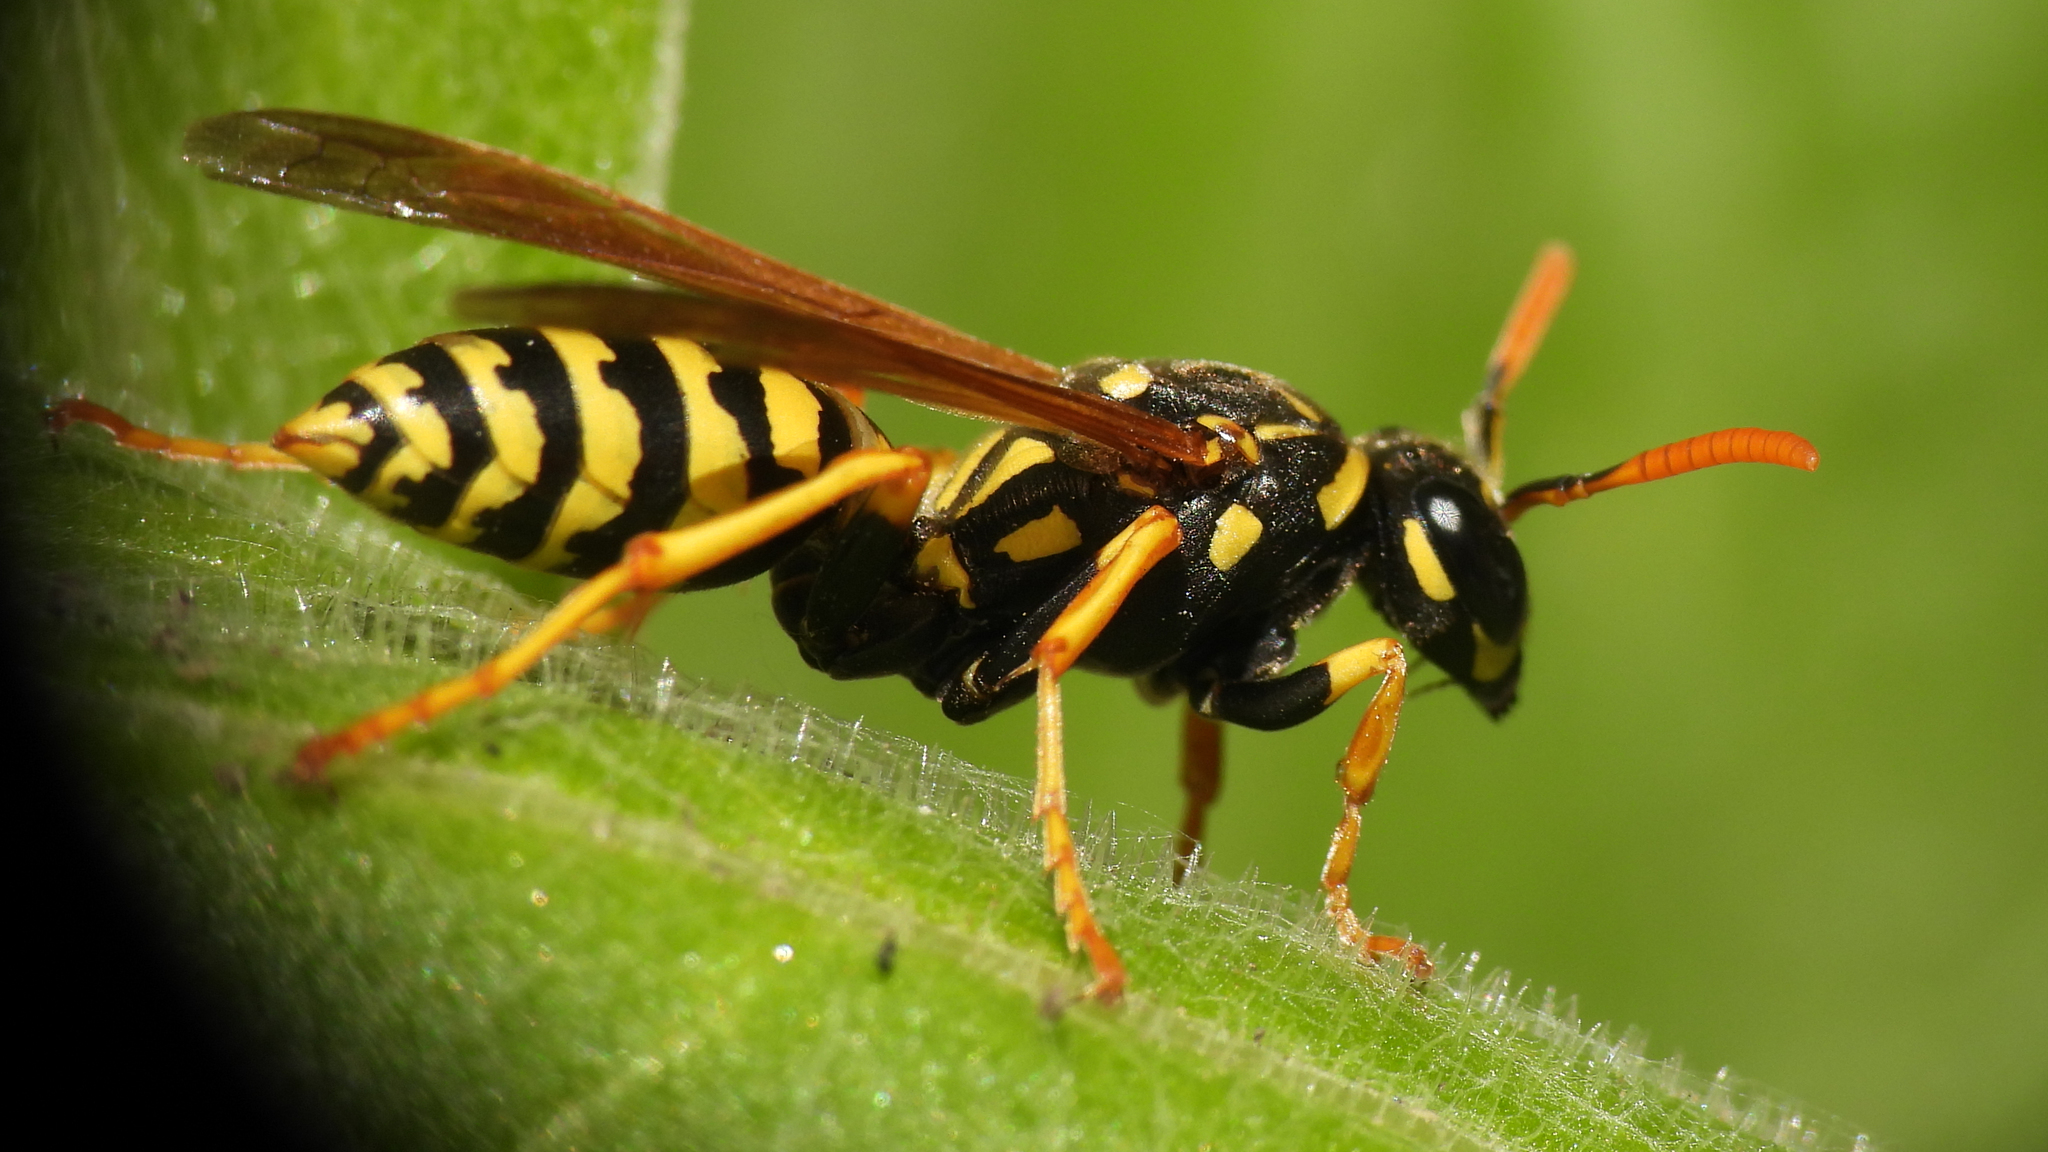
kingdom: Animalia
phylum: Arthropoda
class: Insecta
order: Hymenoptera
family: Eumenidae
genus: Polistes
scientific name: Polistes dominula
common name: Paper wasp
